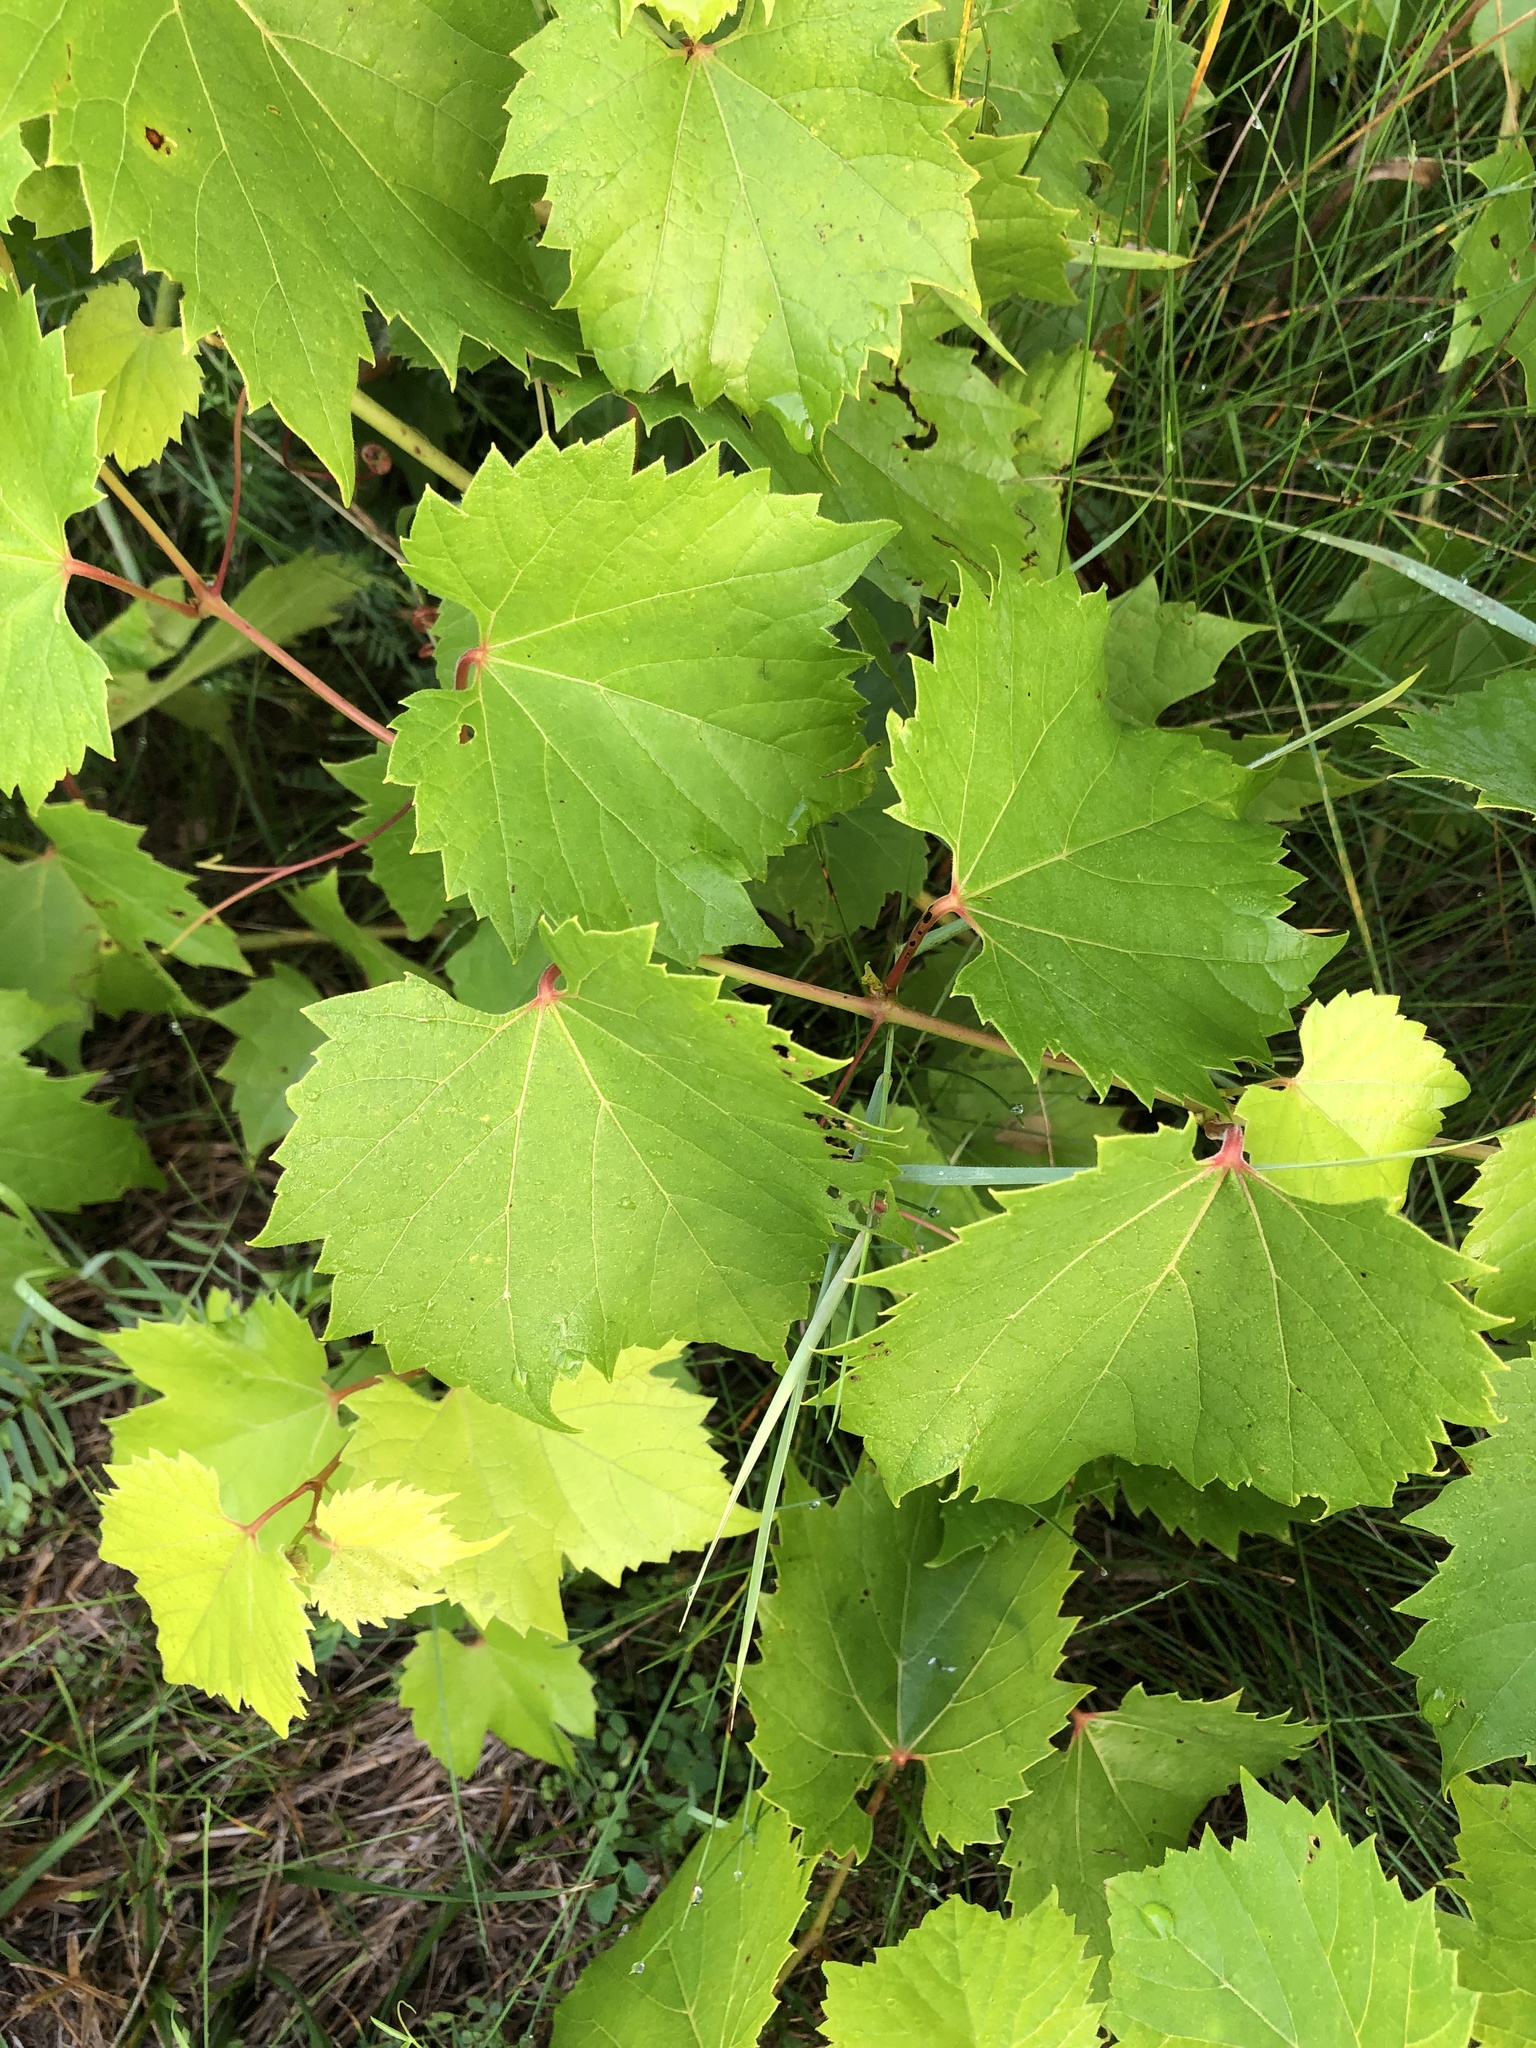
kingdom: Plantae
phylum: Tracheophyta
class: Magnoliopsida
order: Vitales
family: Vitaceae
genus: Vitis
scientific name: Vitis riparia
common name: Frost grape
